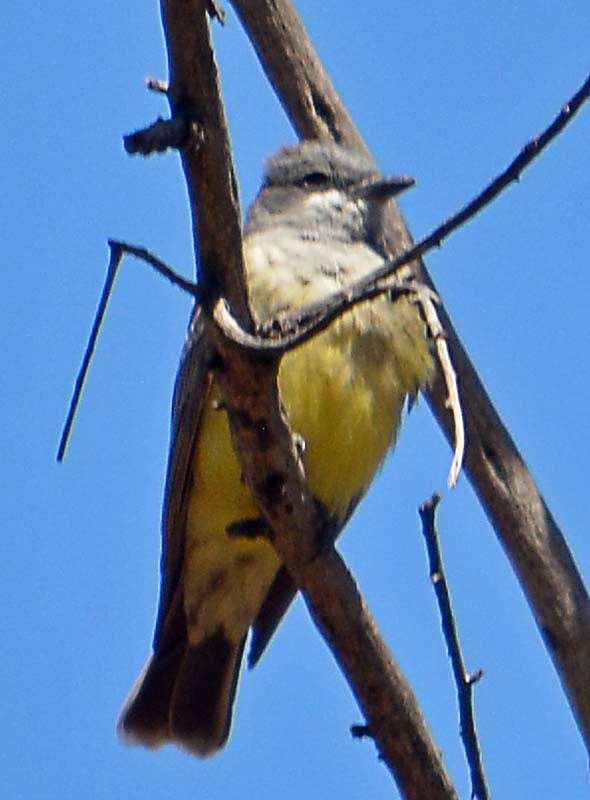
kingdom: Animalia
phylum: Chordata
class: Aves
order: Passeriformes
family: Tyrannidae
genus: Tyrannus
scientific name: Tyrannus vociferans
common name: Cassin's kingbird
